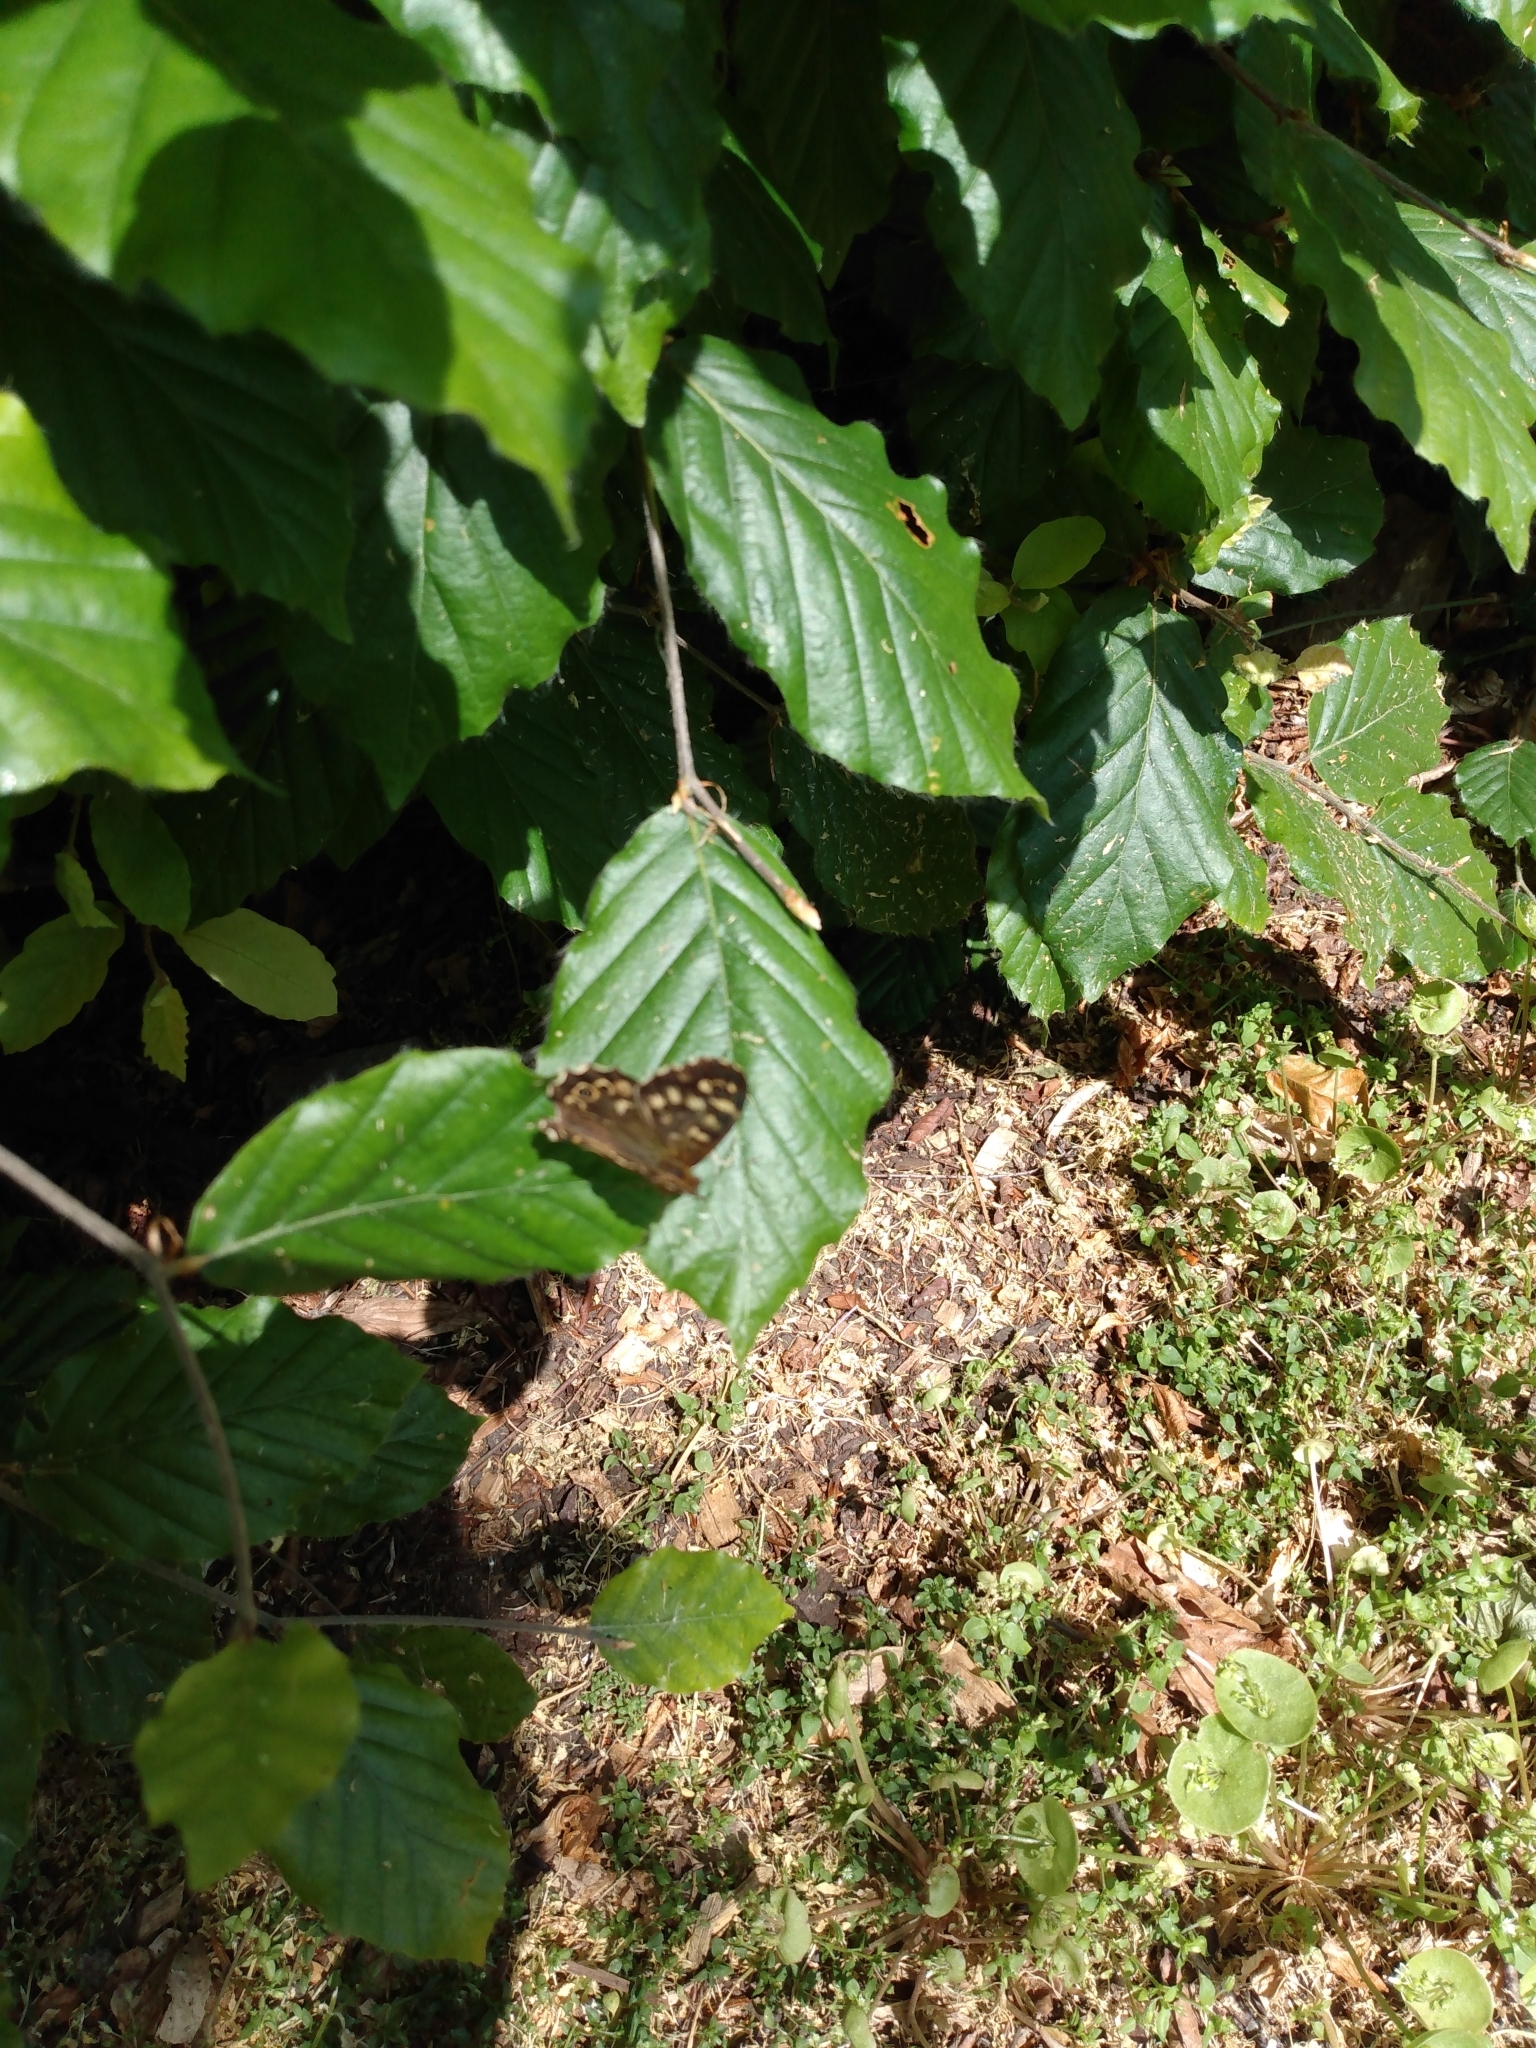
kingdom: Animalia
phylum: Arthropoda
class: Insecta
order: Lepidoptera
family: Nymphalidae
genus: Pararge
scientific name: Pararge aegeria
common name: Speckled wood
